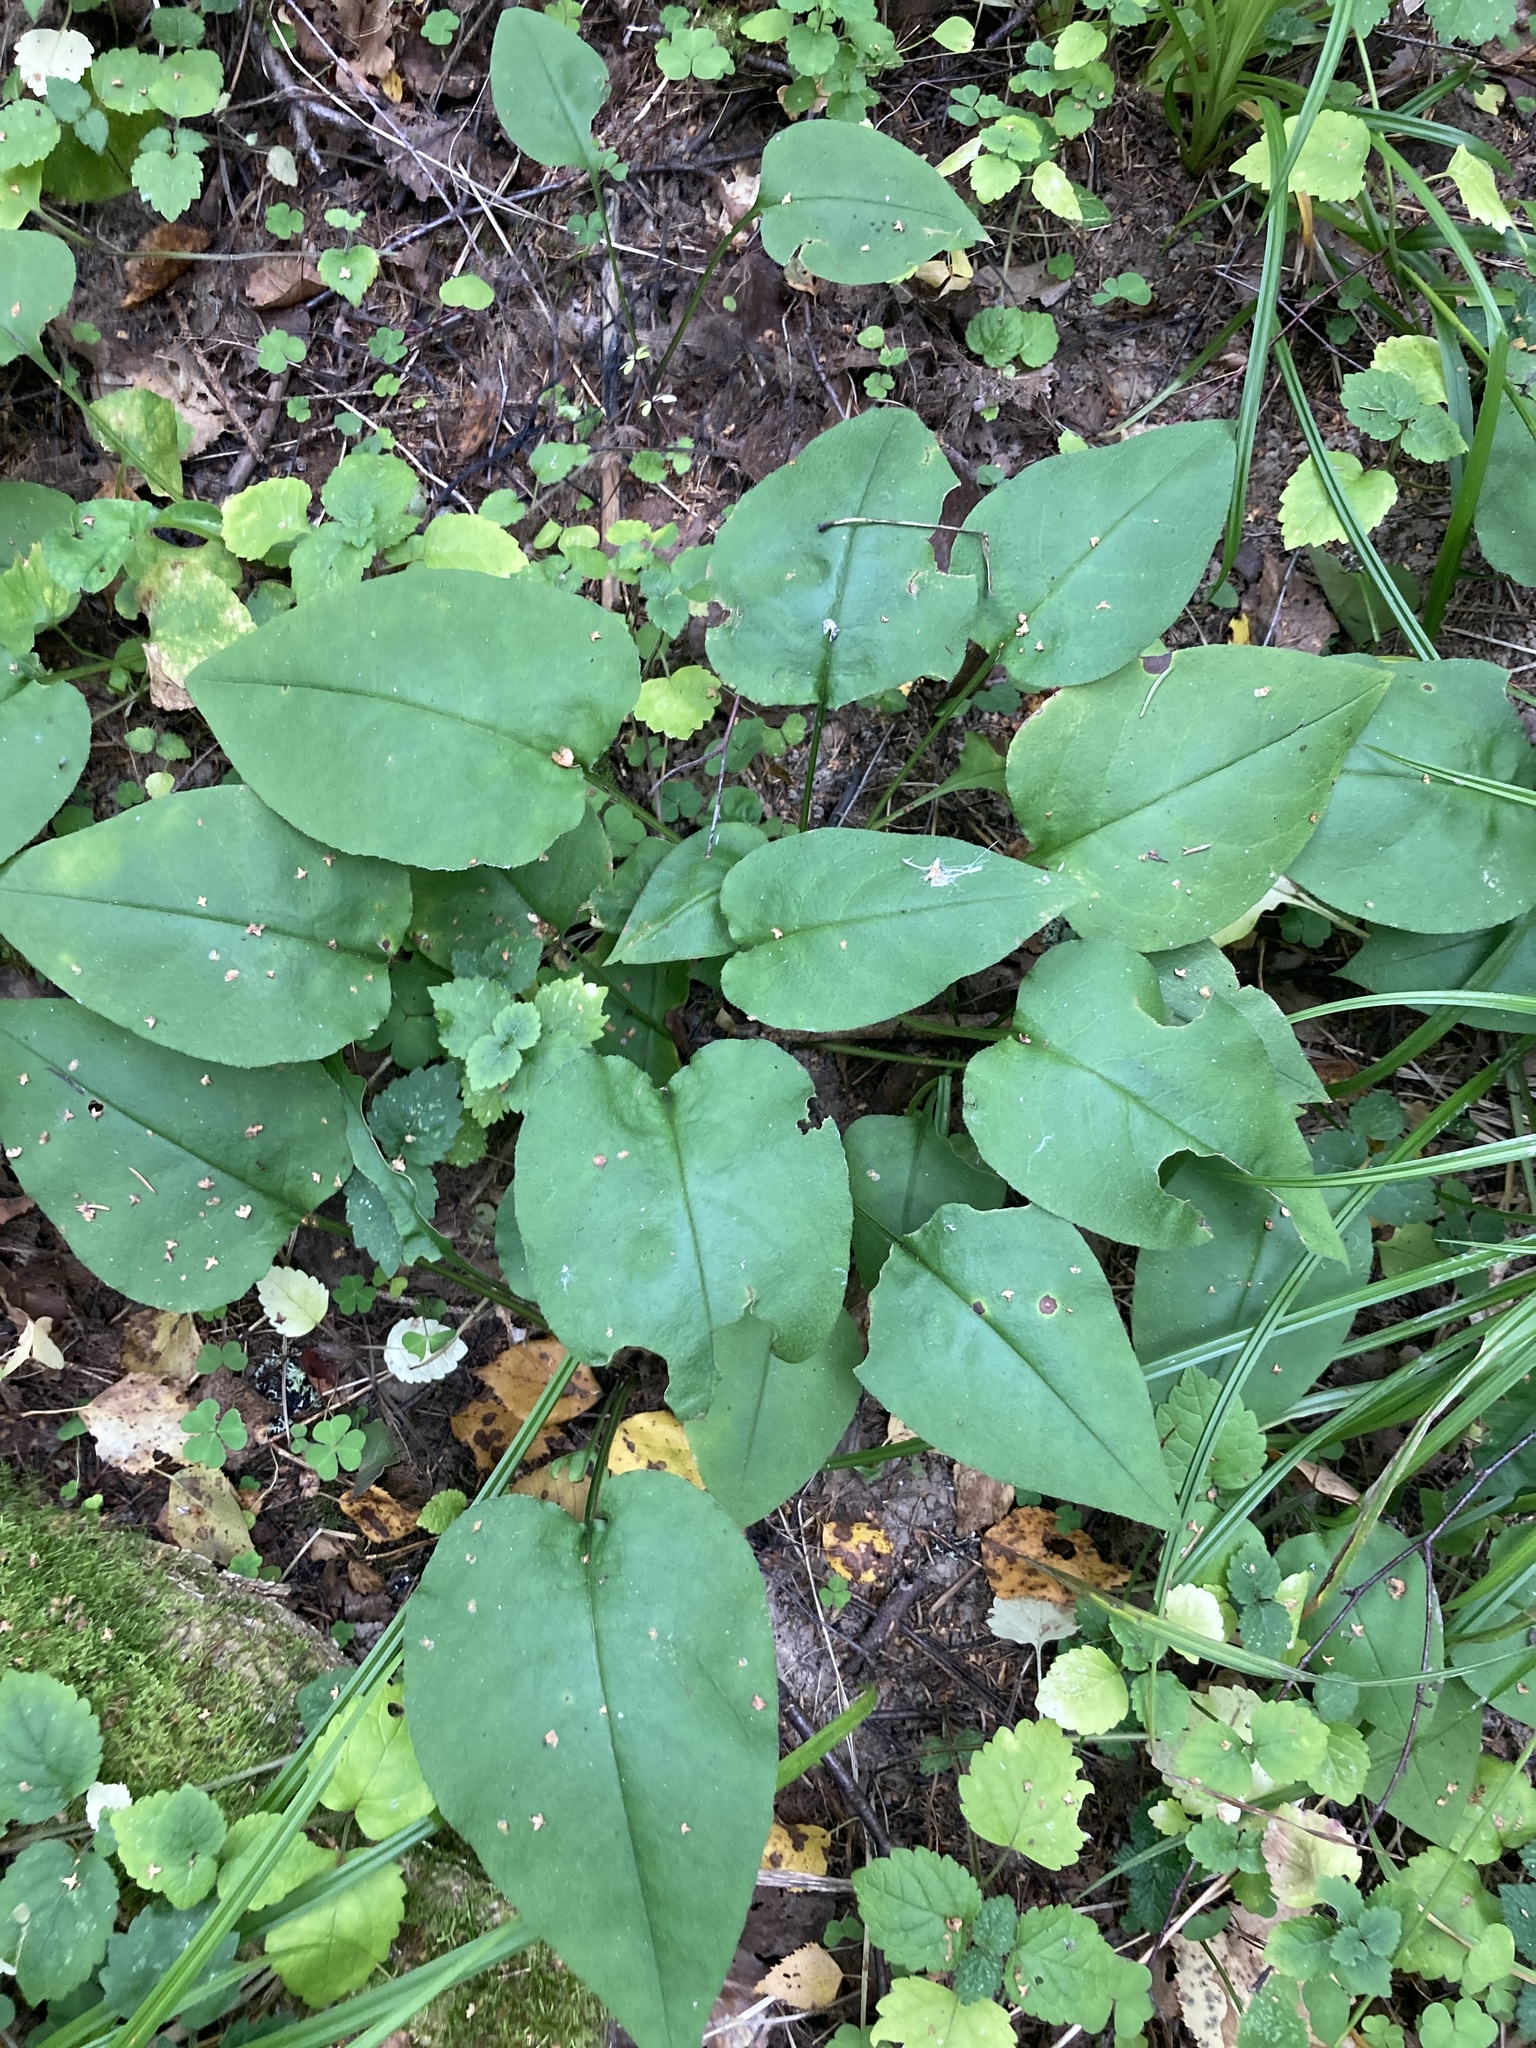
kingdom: Plantae
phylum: Tracheophyta
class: Magnoliopsida
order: Boraginales
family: Boraginaceae
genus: Pulmonaria
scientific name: Pulmonaria obscura
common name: Suffolk lungwort
